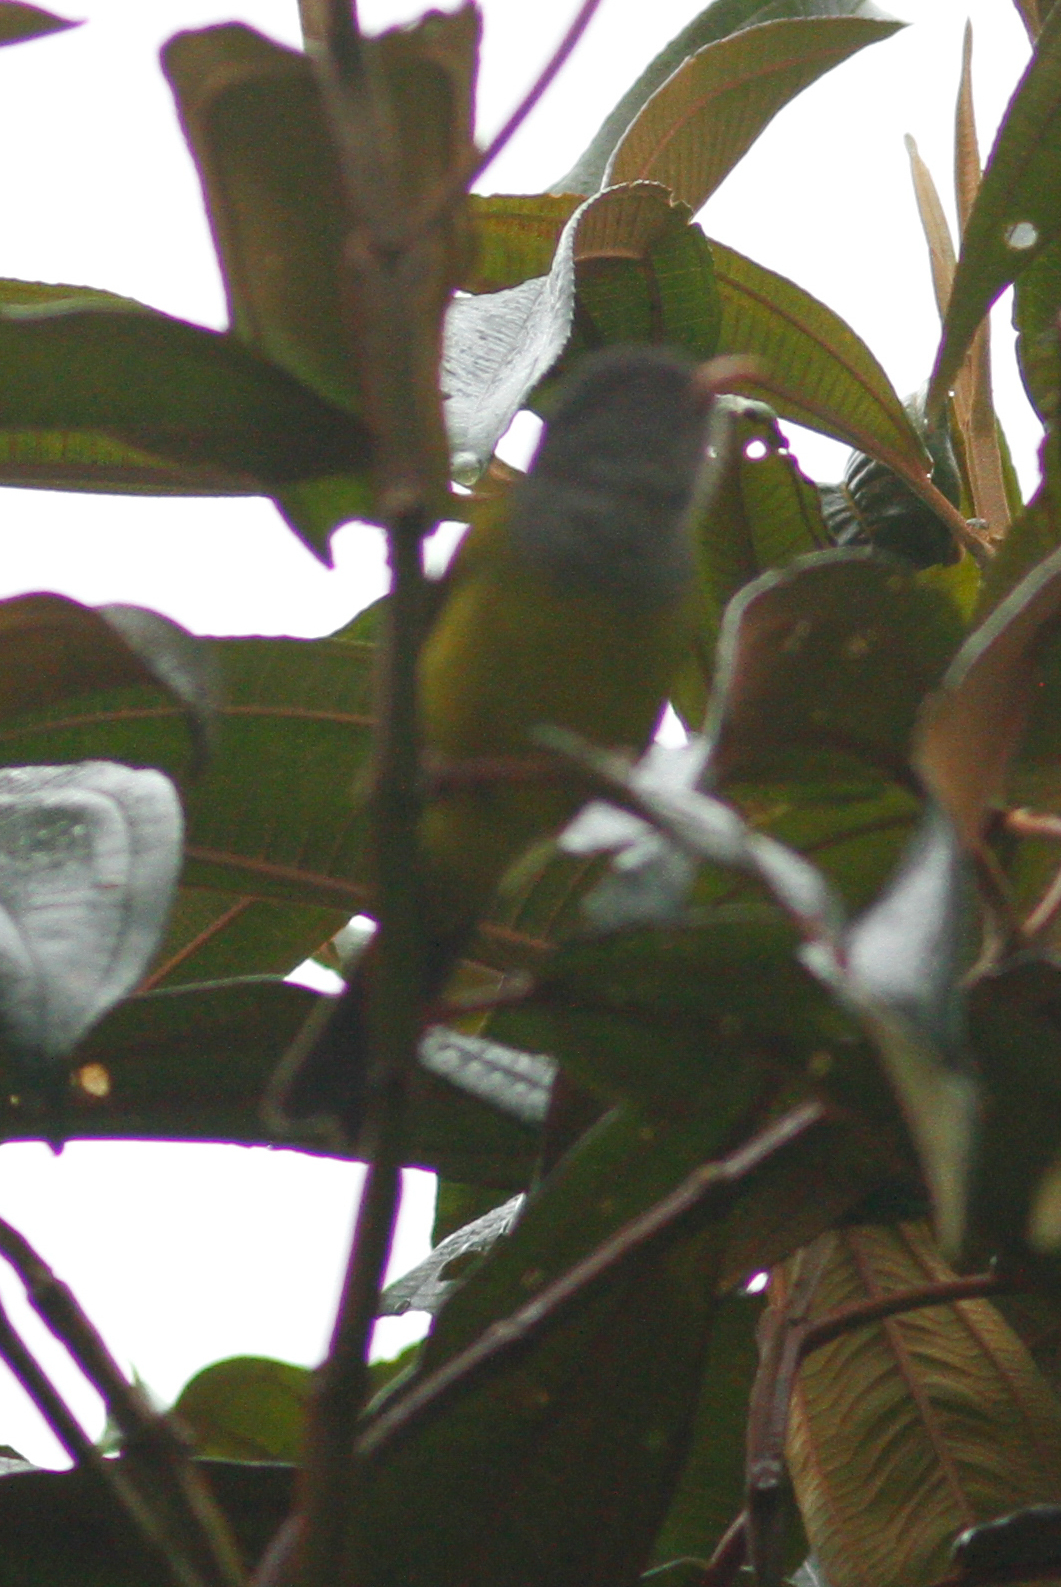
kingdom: Animalia
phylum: Chordata
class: Aves
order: Passeriformes
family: Thraupidae
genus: Cnemoscopus
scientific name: Cnemoscopus rubrirostris
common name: Grey-hooded bush tanager
